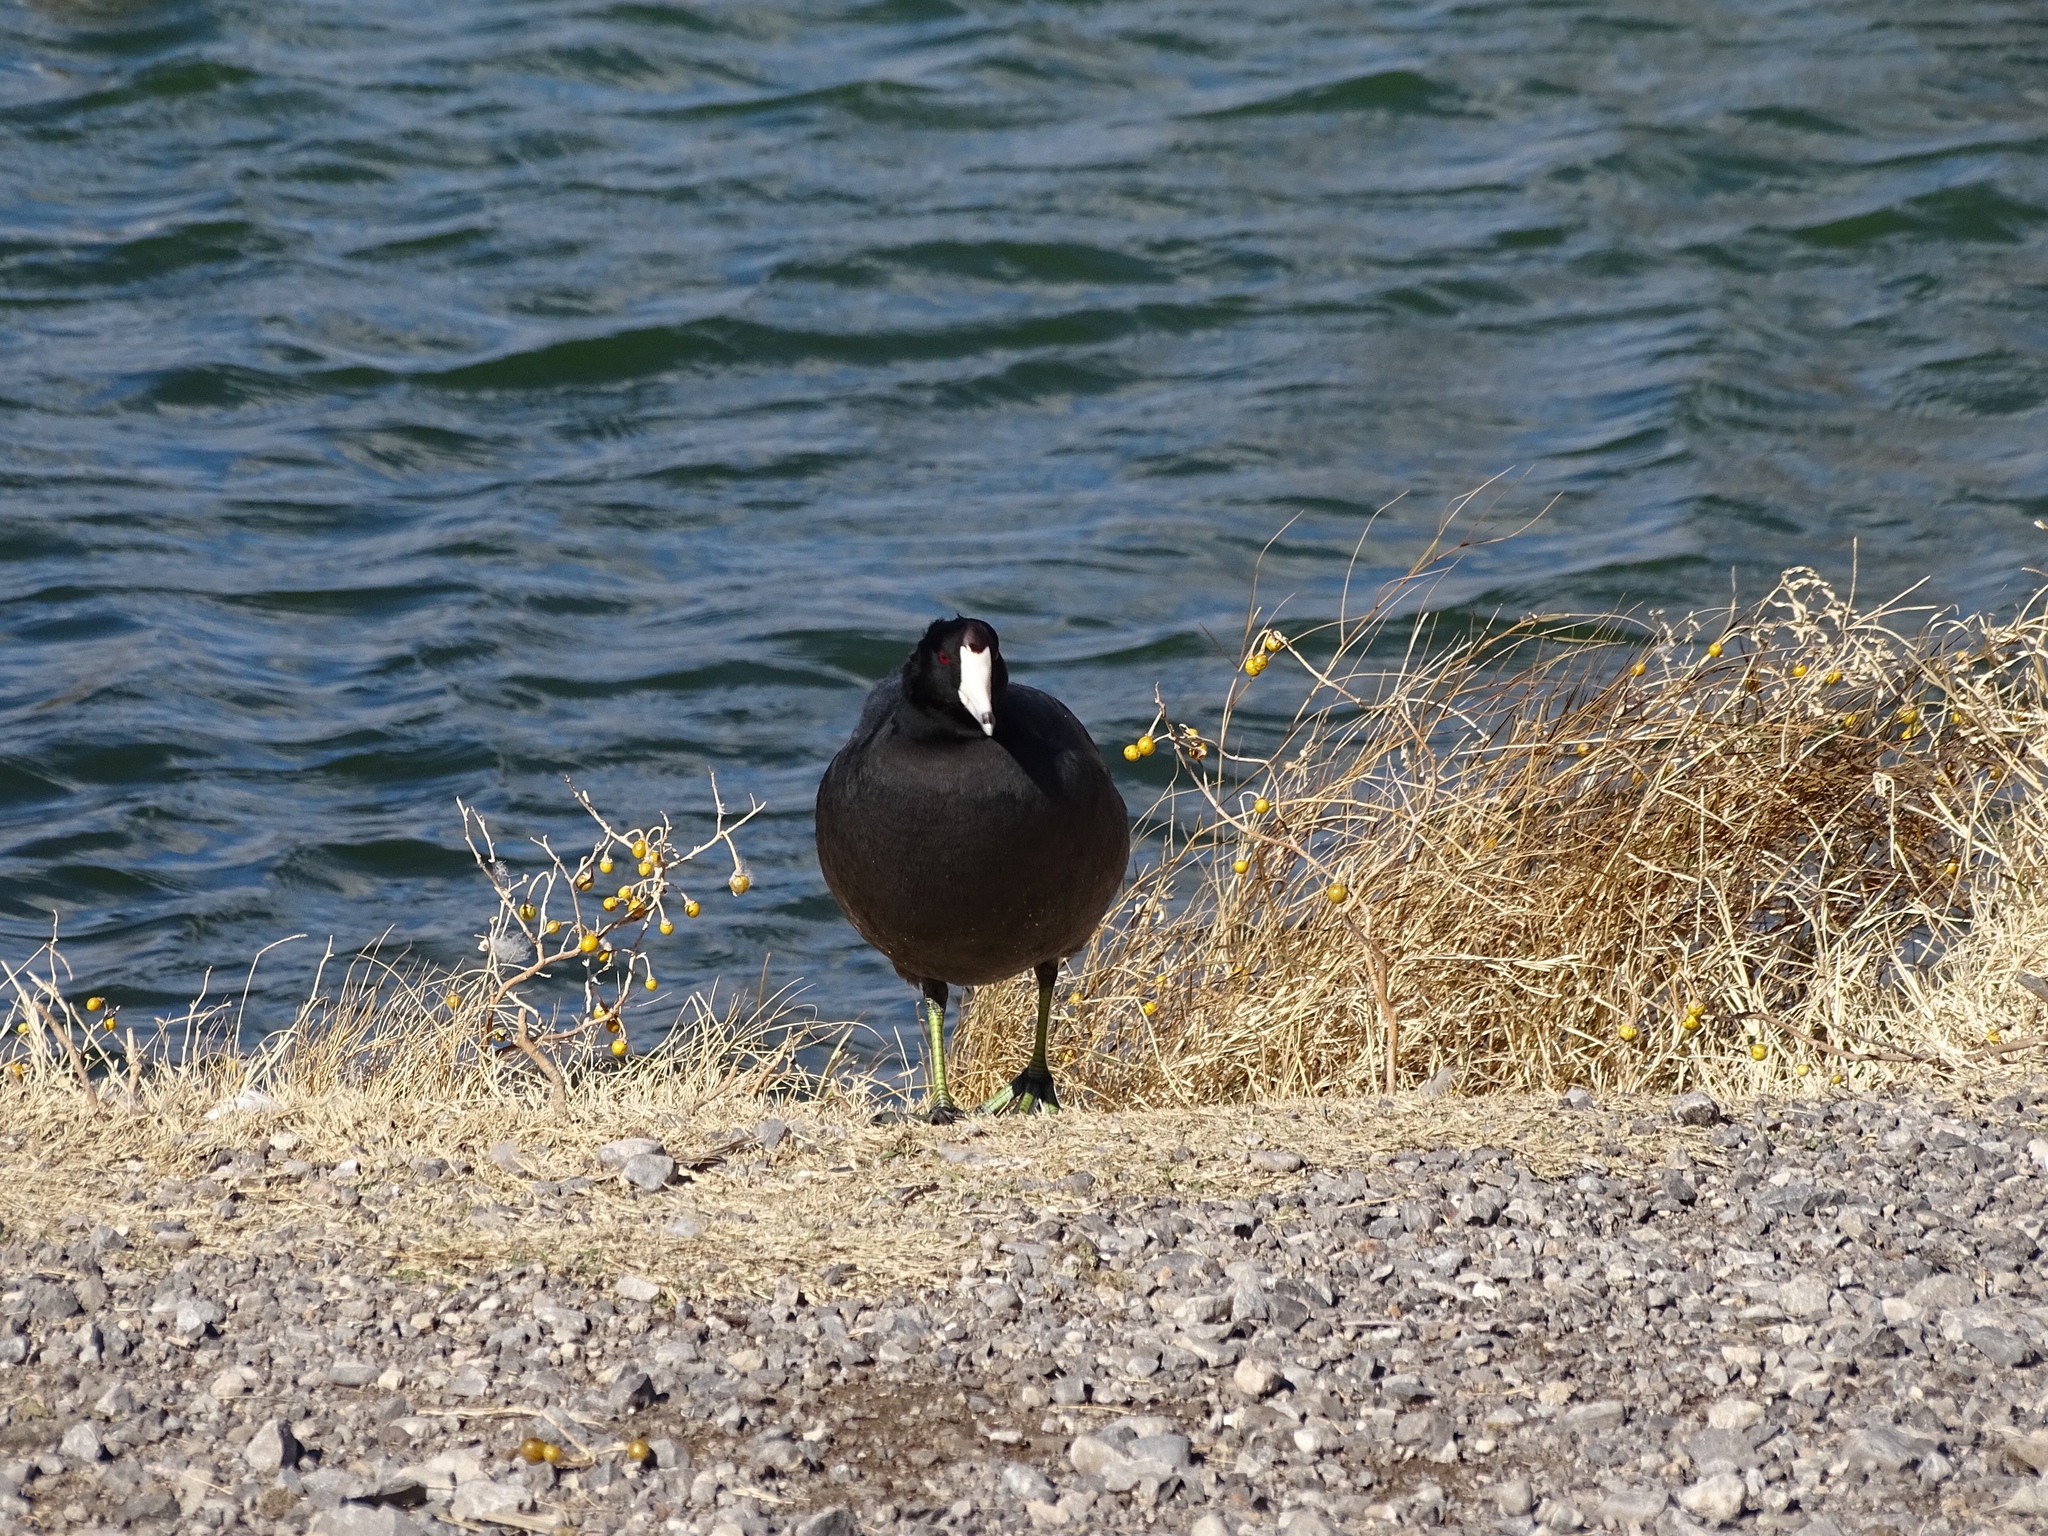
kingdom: Animalia
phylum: Chordata
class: Aves
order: Gruiformes
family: Rallidae
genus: Fulica
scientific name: Fulica americana
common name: American coot
